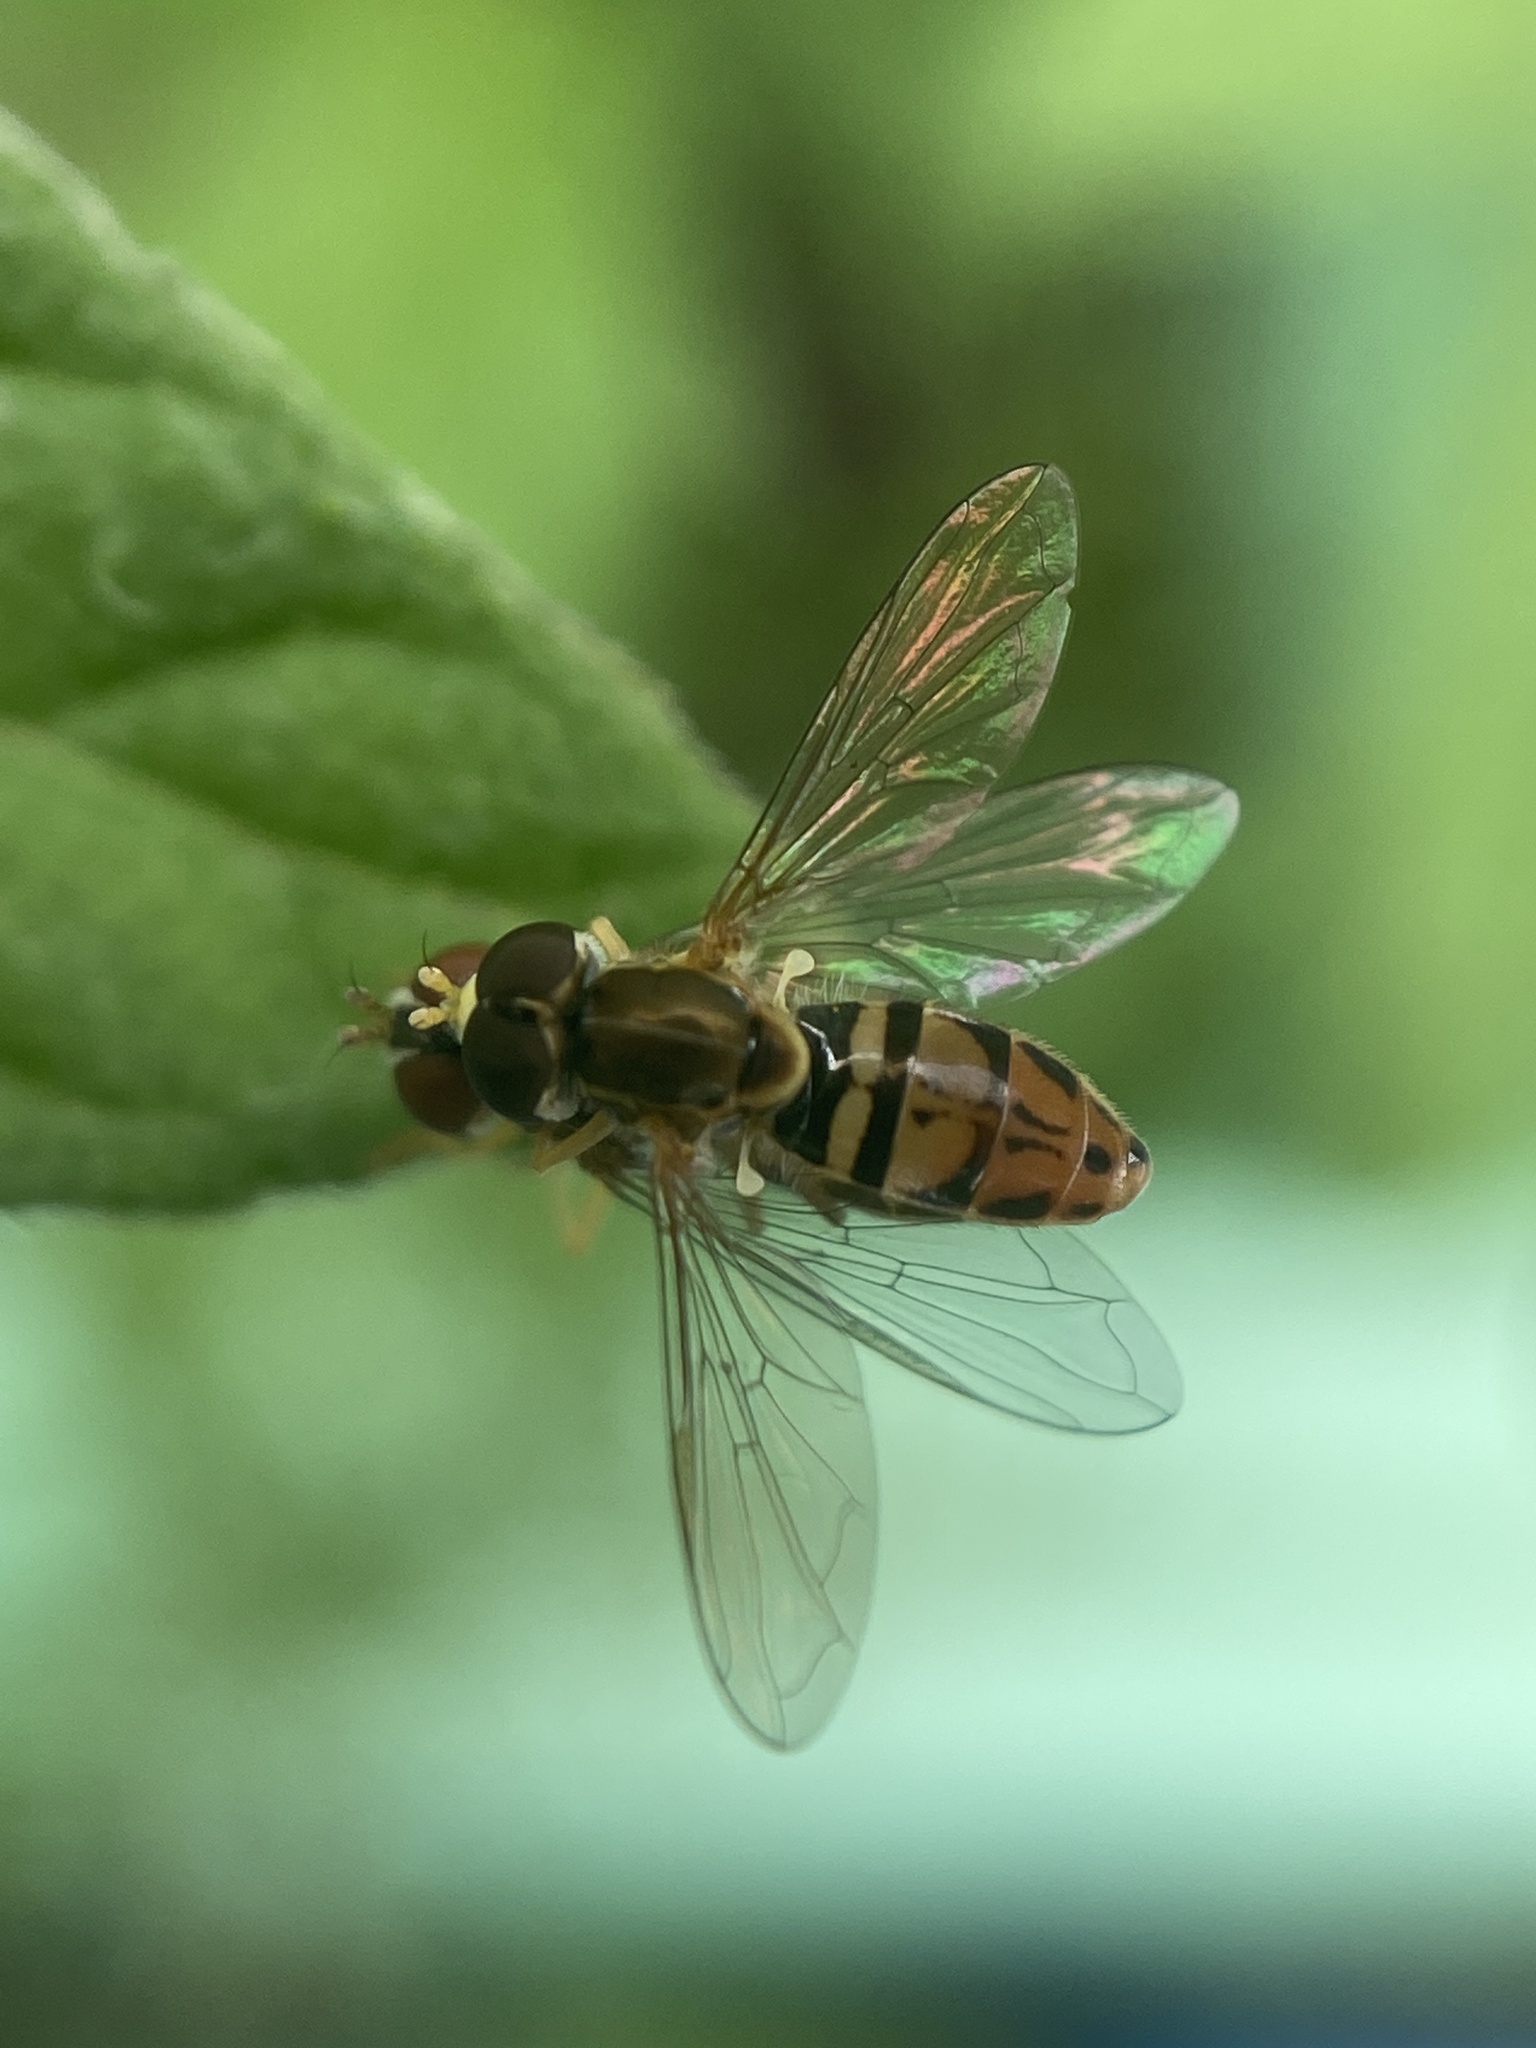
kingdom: Animalia
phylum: Arthropoda
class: Insecta
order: Diptera
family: Syrphidae
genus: Toxomerus
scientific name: Toxomerus marginatus
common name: Syrphid fly
